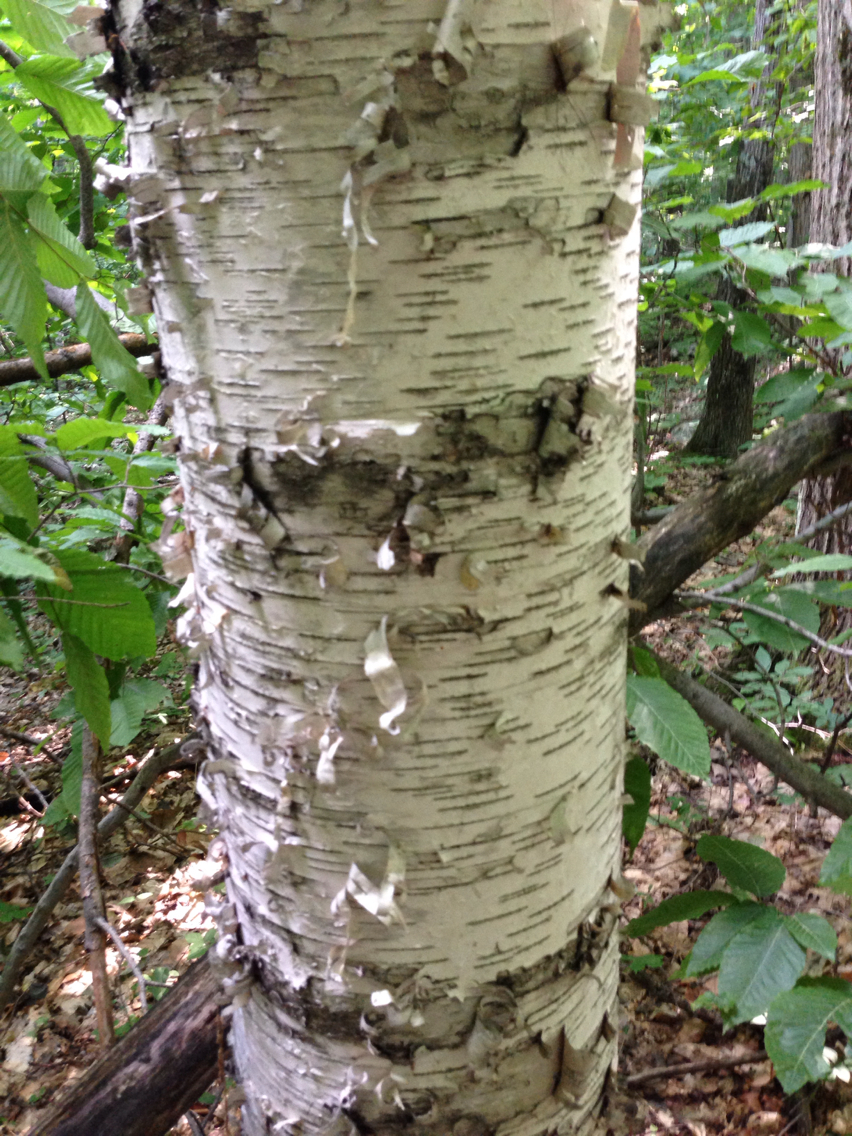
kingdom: Plantae
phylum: Tracheophyta
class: Magnoliopsida
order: Fagales
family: Betulaceae
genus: Betula
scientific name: Betula papyrifera
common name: Paper birch
